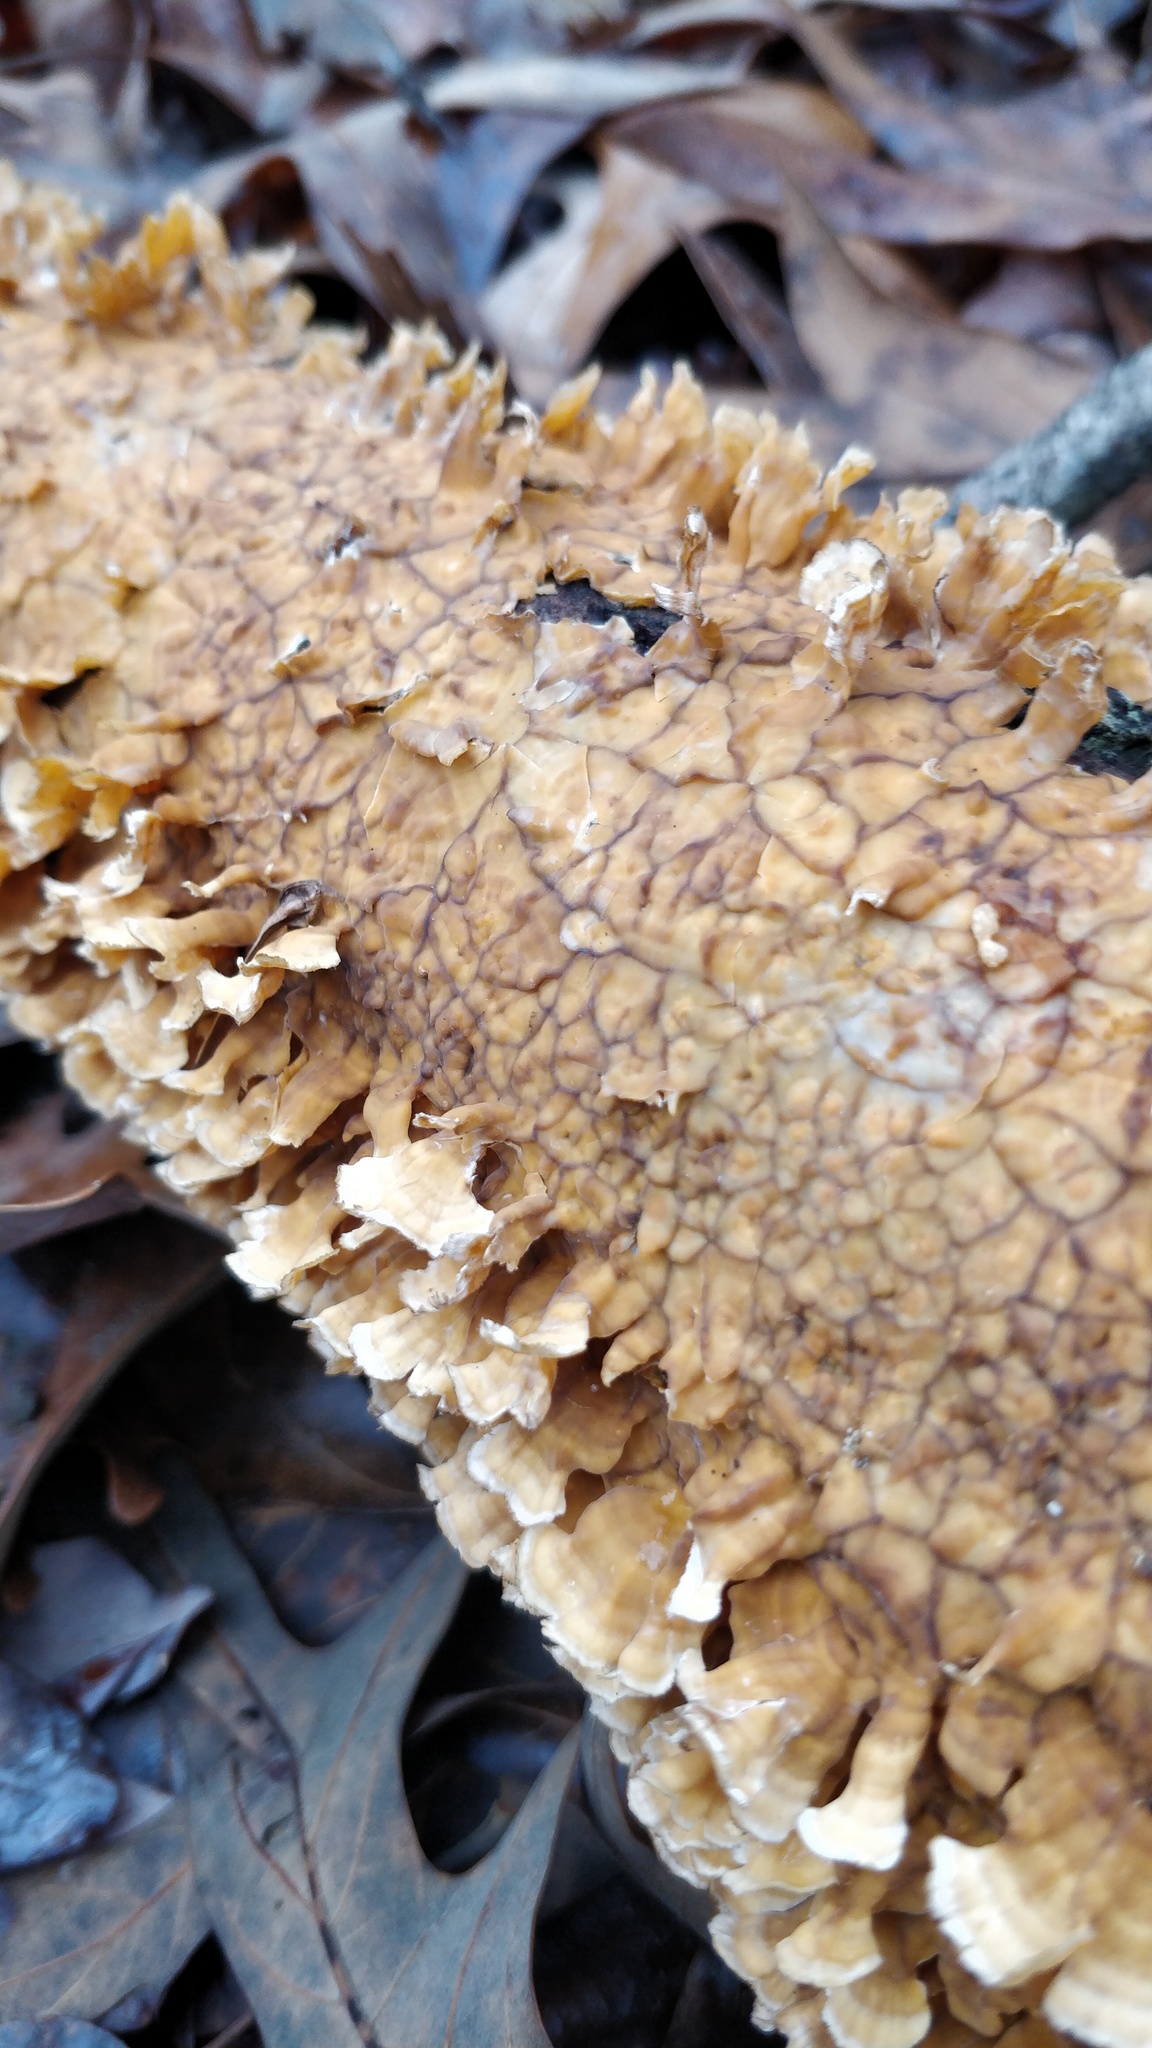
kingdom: Fungi
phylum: Basidiomycota
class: Agaricomycetes
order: Russulales
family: Stereaceae
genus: Stereum
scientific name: Stereum complicatum
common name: Crowded parchment
